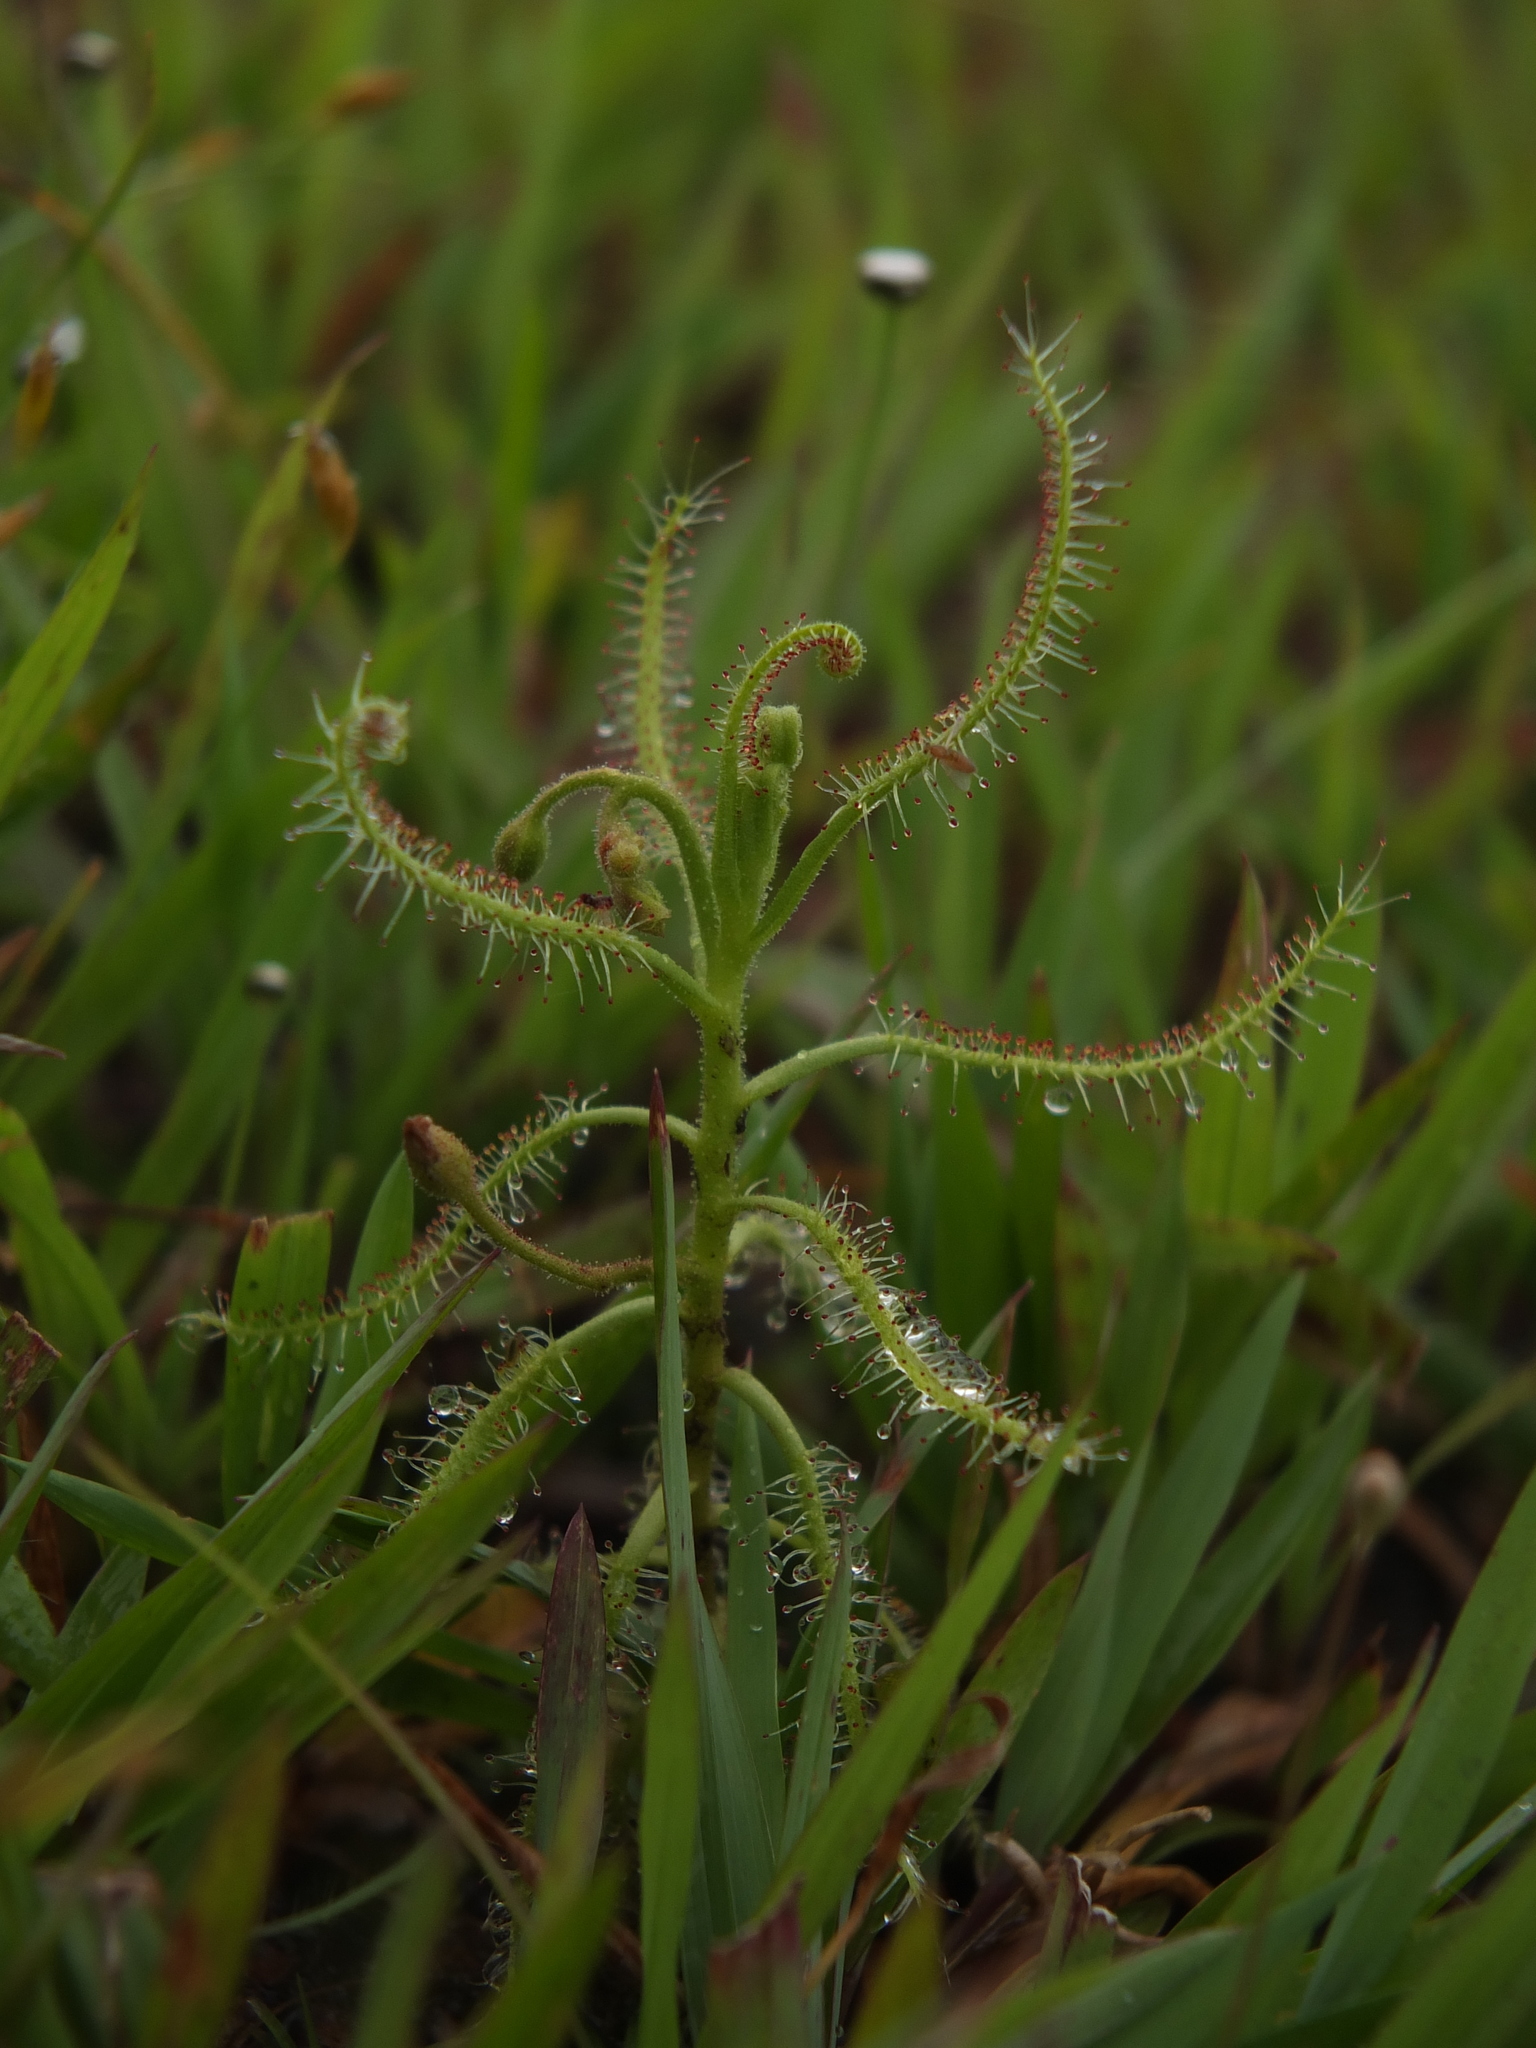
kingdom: Plantae
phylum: Tracheophyta
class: Magnoliopsida
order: Caryophyllales
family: Droseraceae
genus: Drosera
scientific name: Drosera indica
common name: Indian sundew
